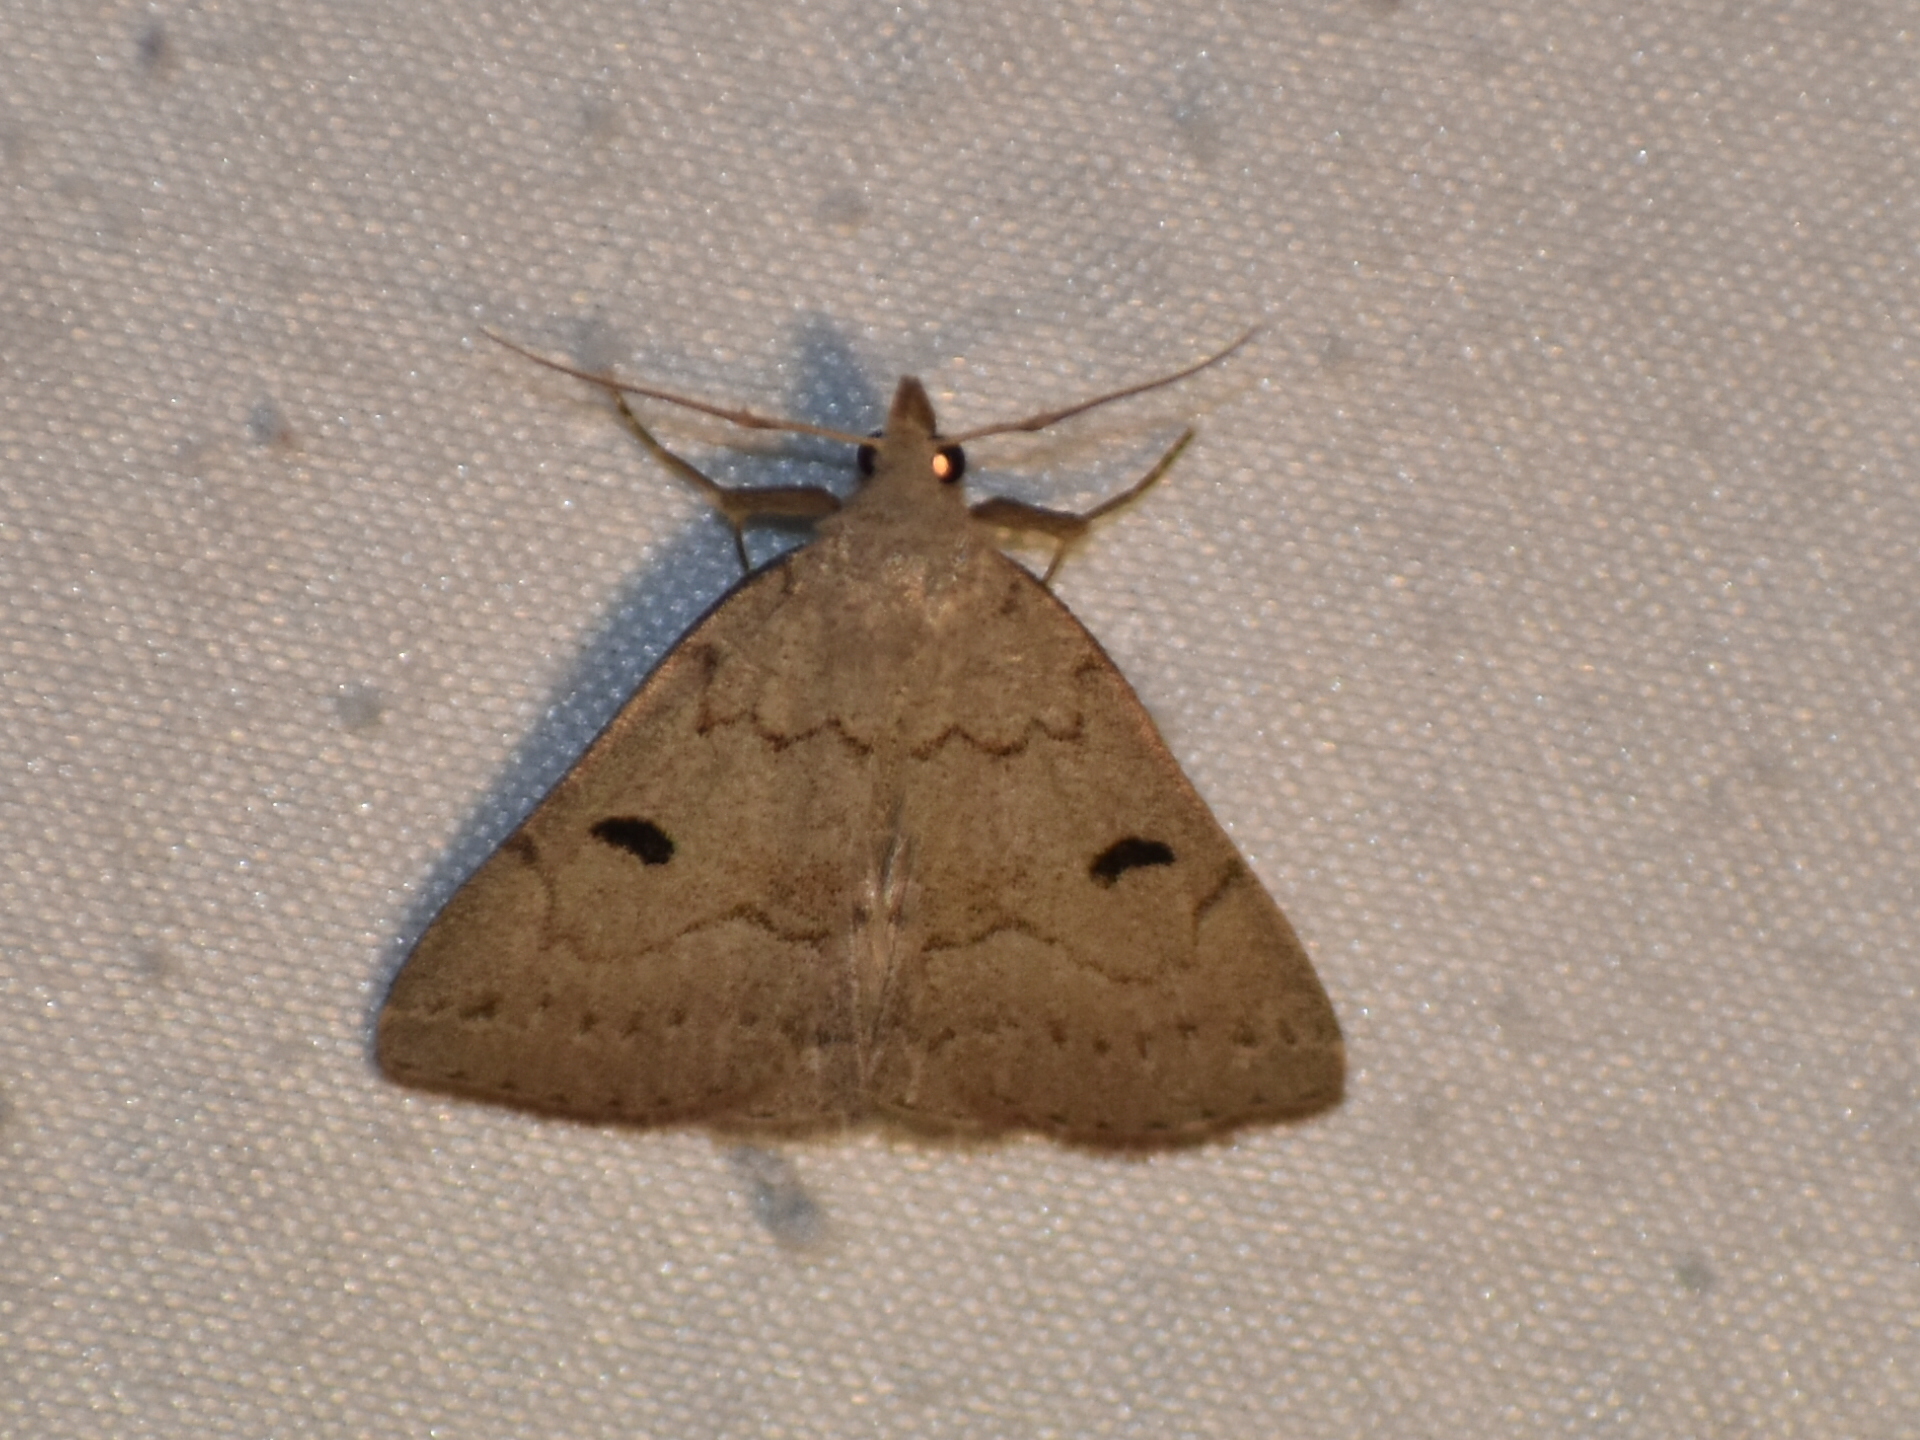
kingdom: Animalia
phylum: Arthropoda
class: Insecta
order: Lepidoptera
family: Erebidae
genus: Macrochilo
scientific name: Macrochilo morbidalis
